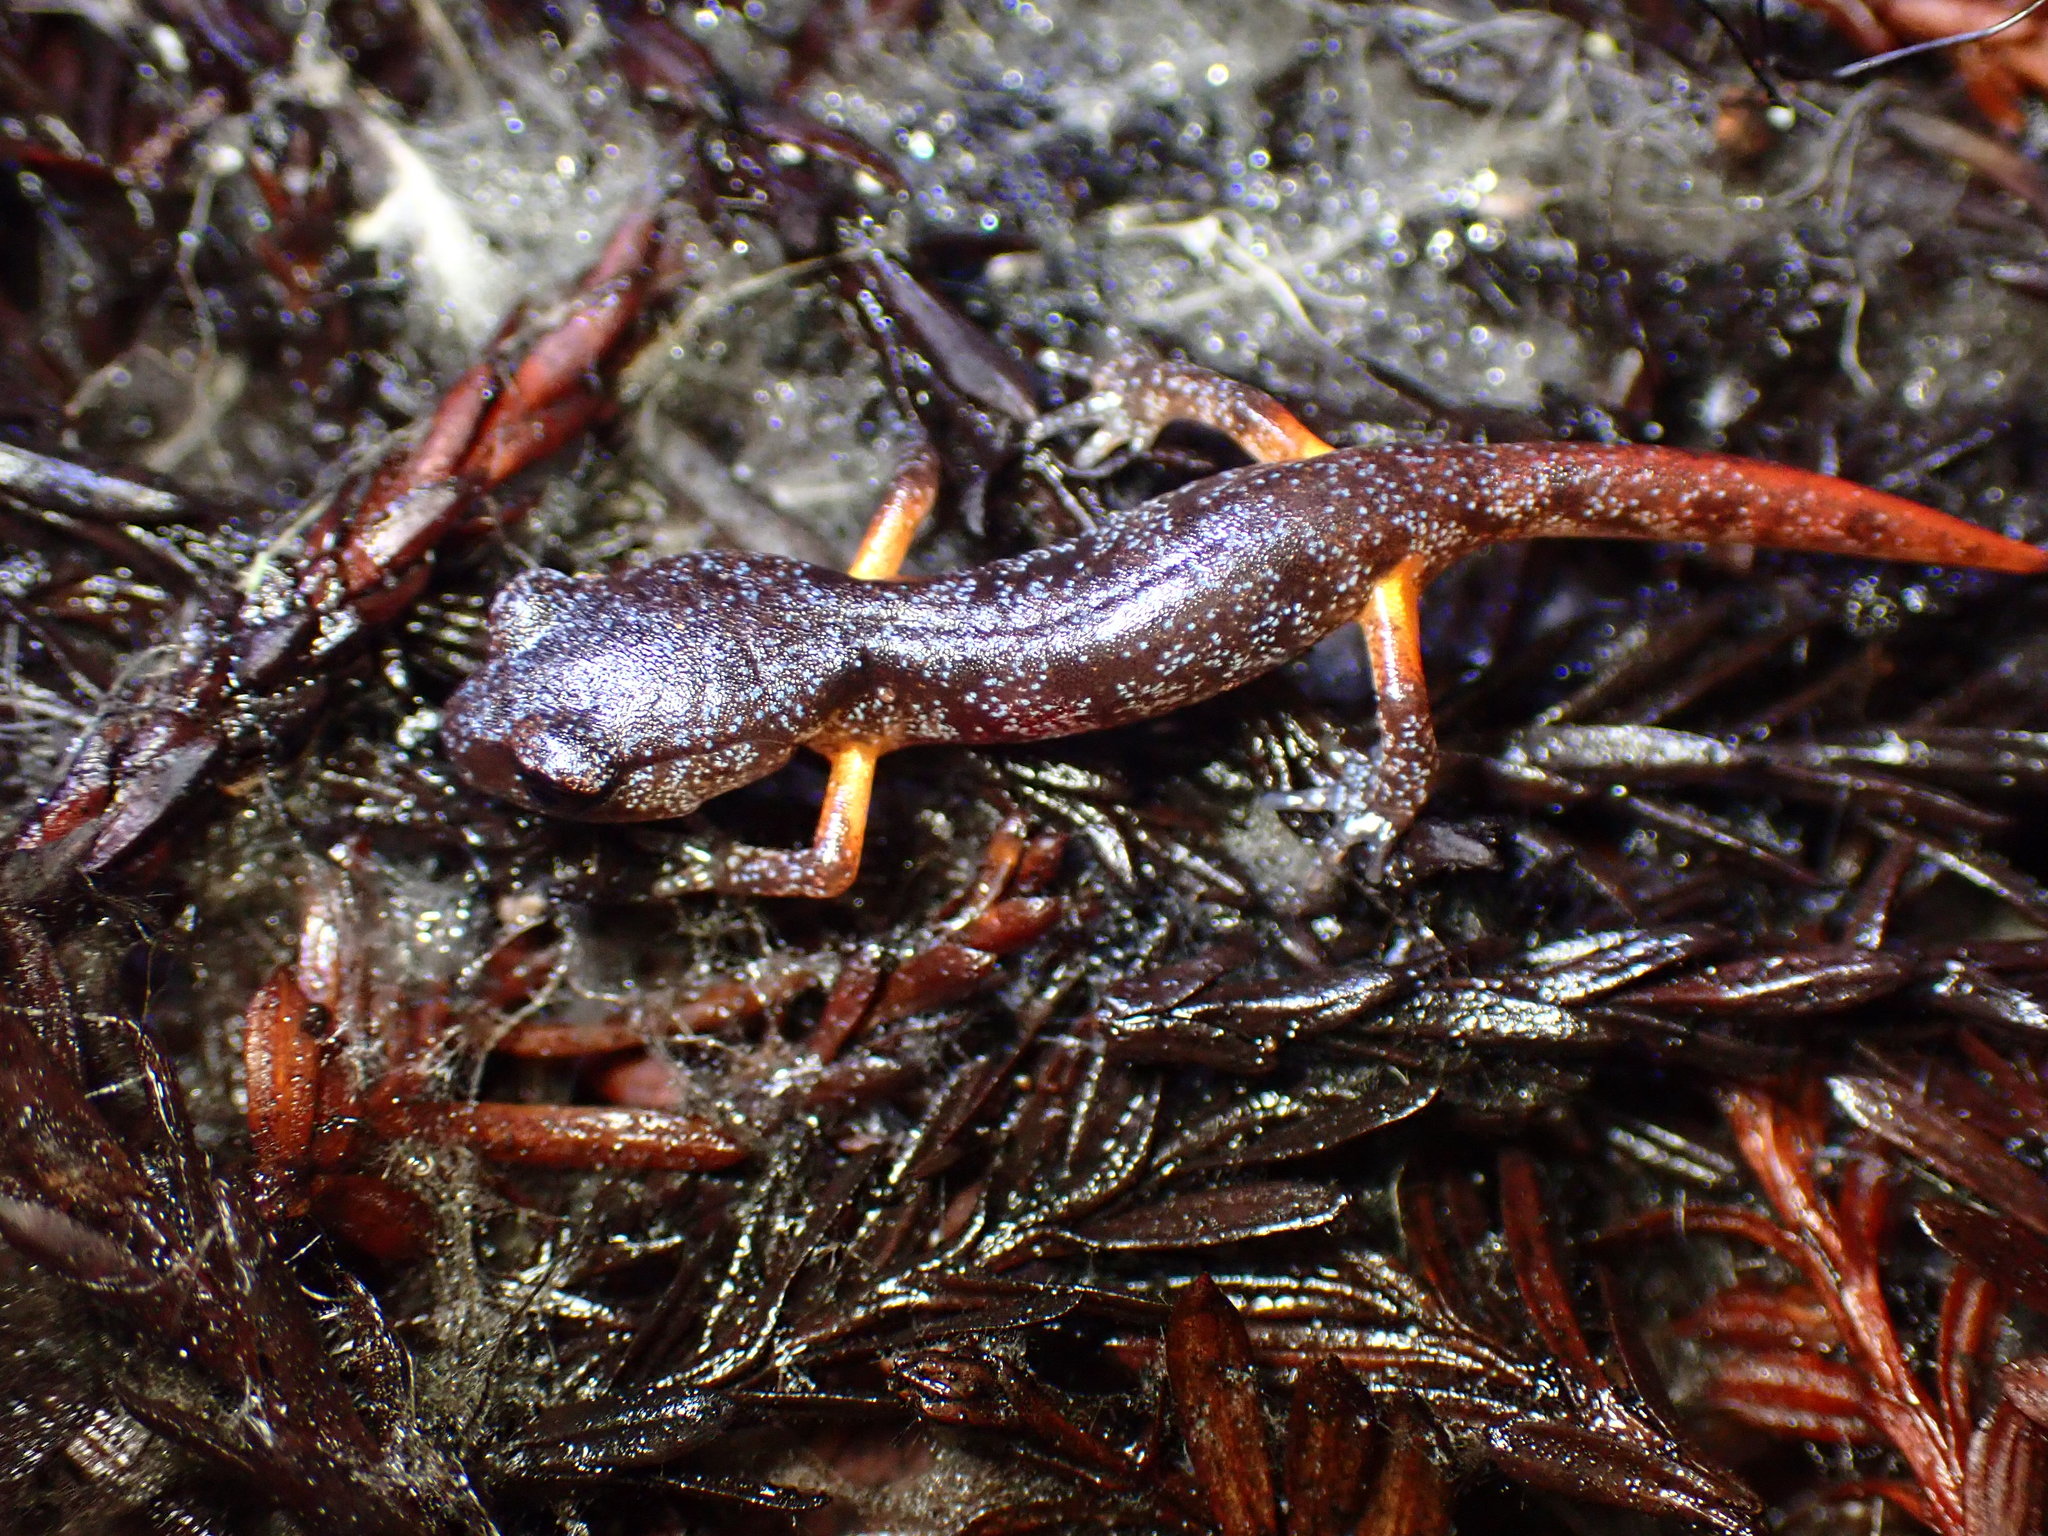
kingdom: Animalia
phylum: Chordata
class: Amphibia
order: Caudata
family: Plethodontidae
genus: Ensatina
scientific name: Ensatina eschscholtzii
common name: Ensatina
